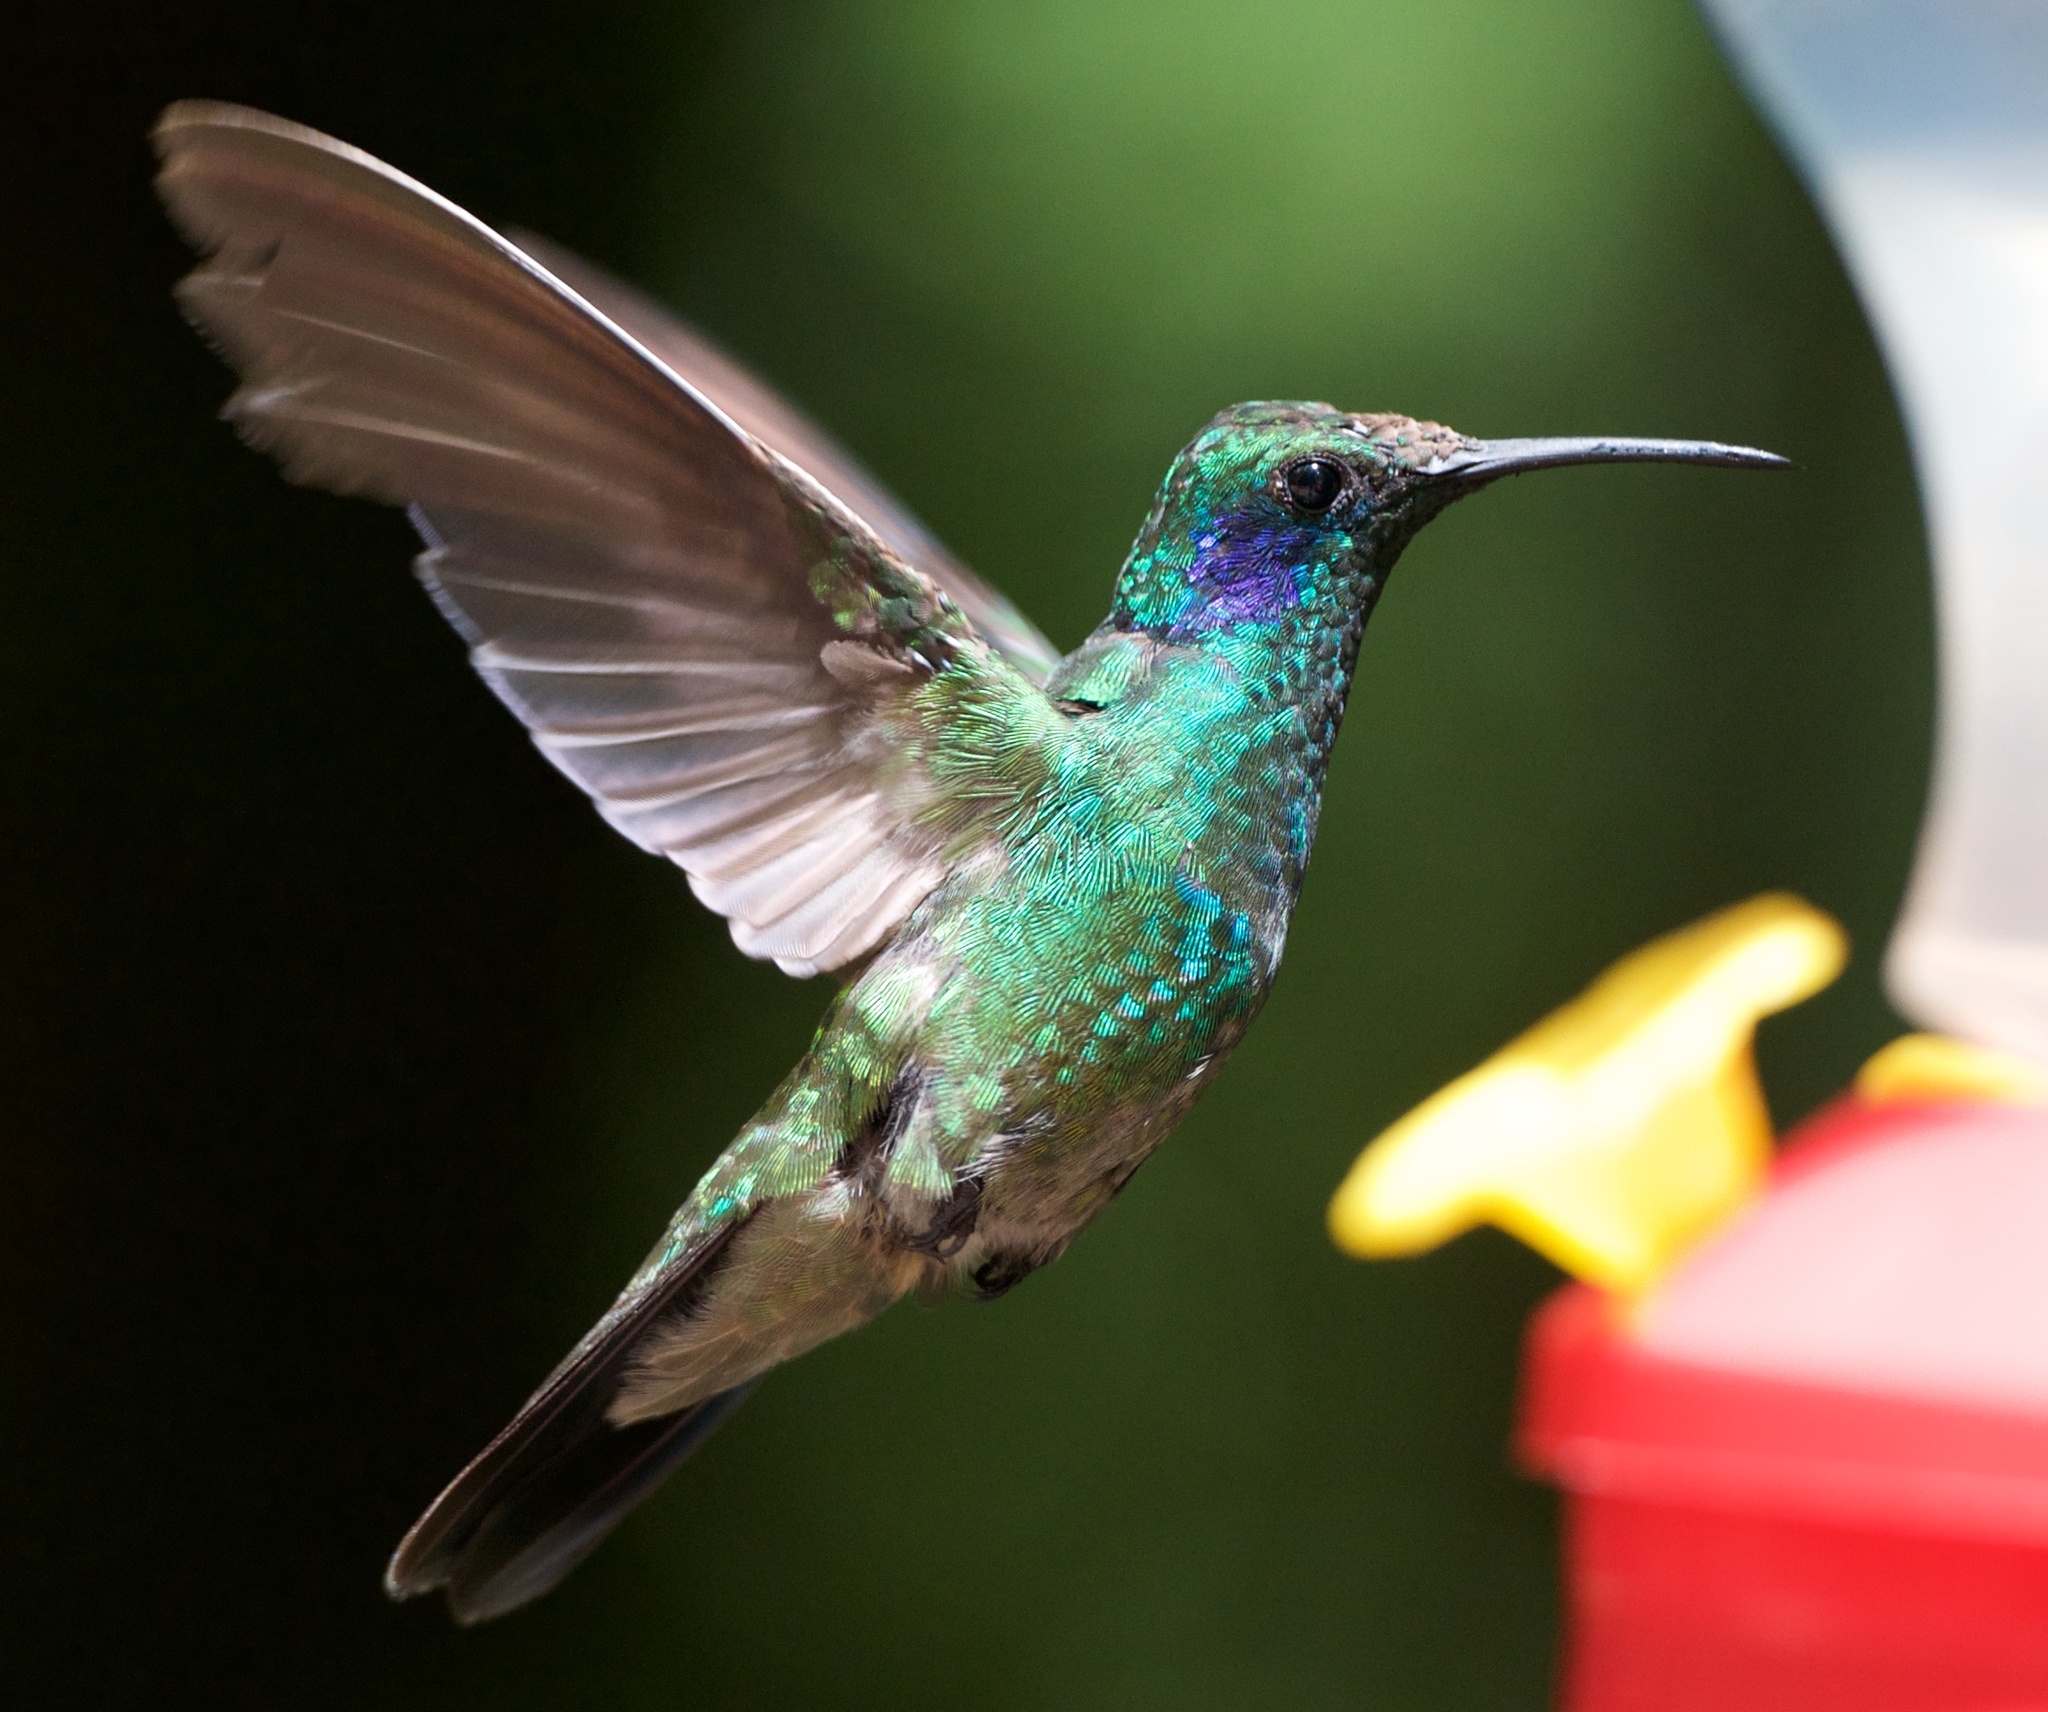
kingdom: Animalia
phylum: Chordata
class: Aves
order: Apodiformes
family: Trochilidae
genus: Colibri
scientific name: Colibri cyanotus
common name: Lesser violetear
